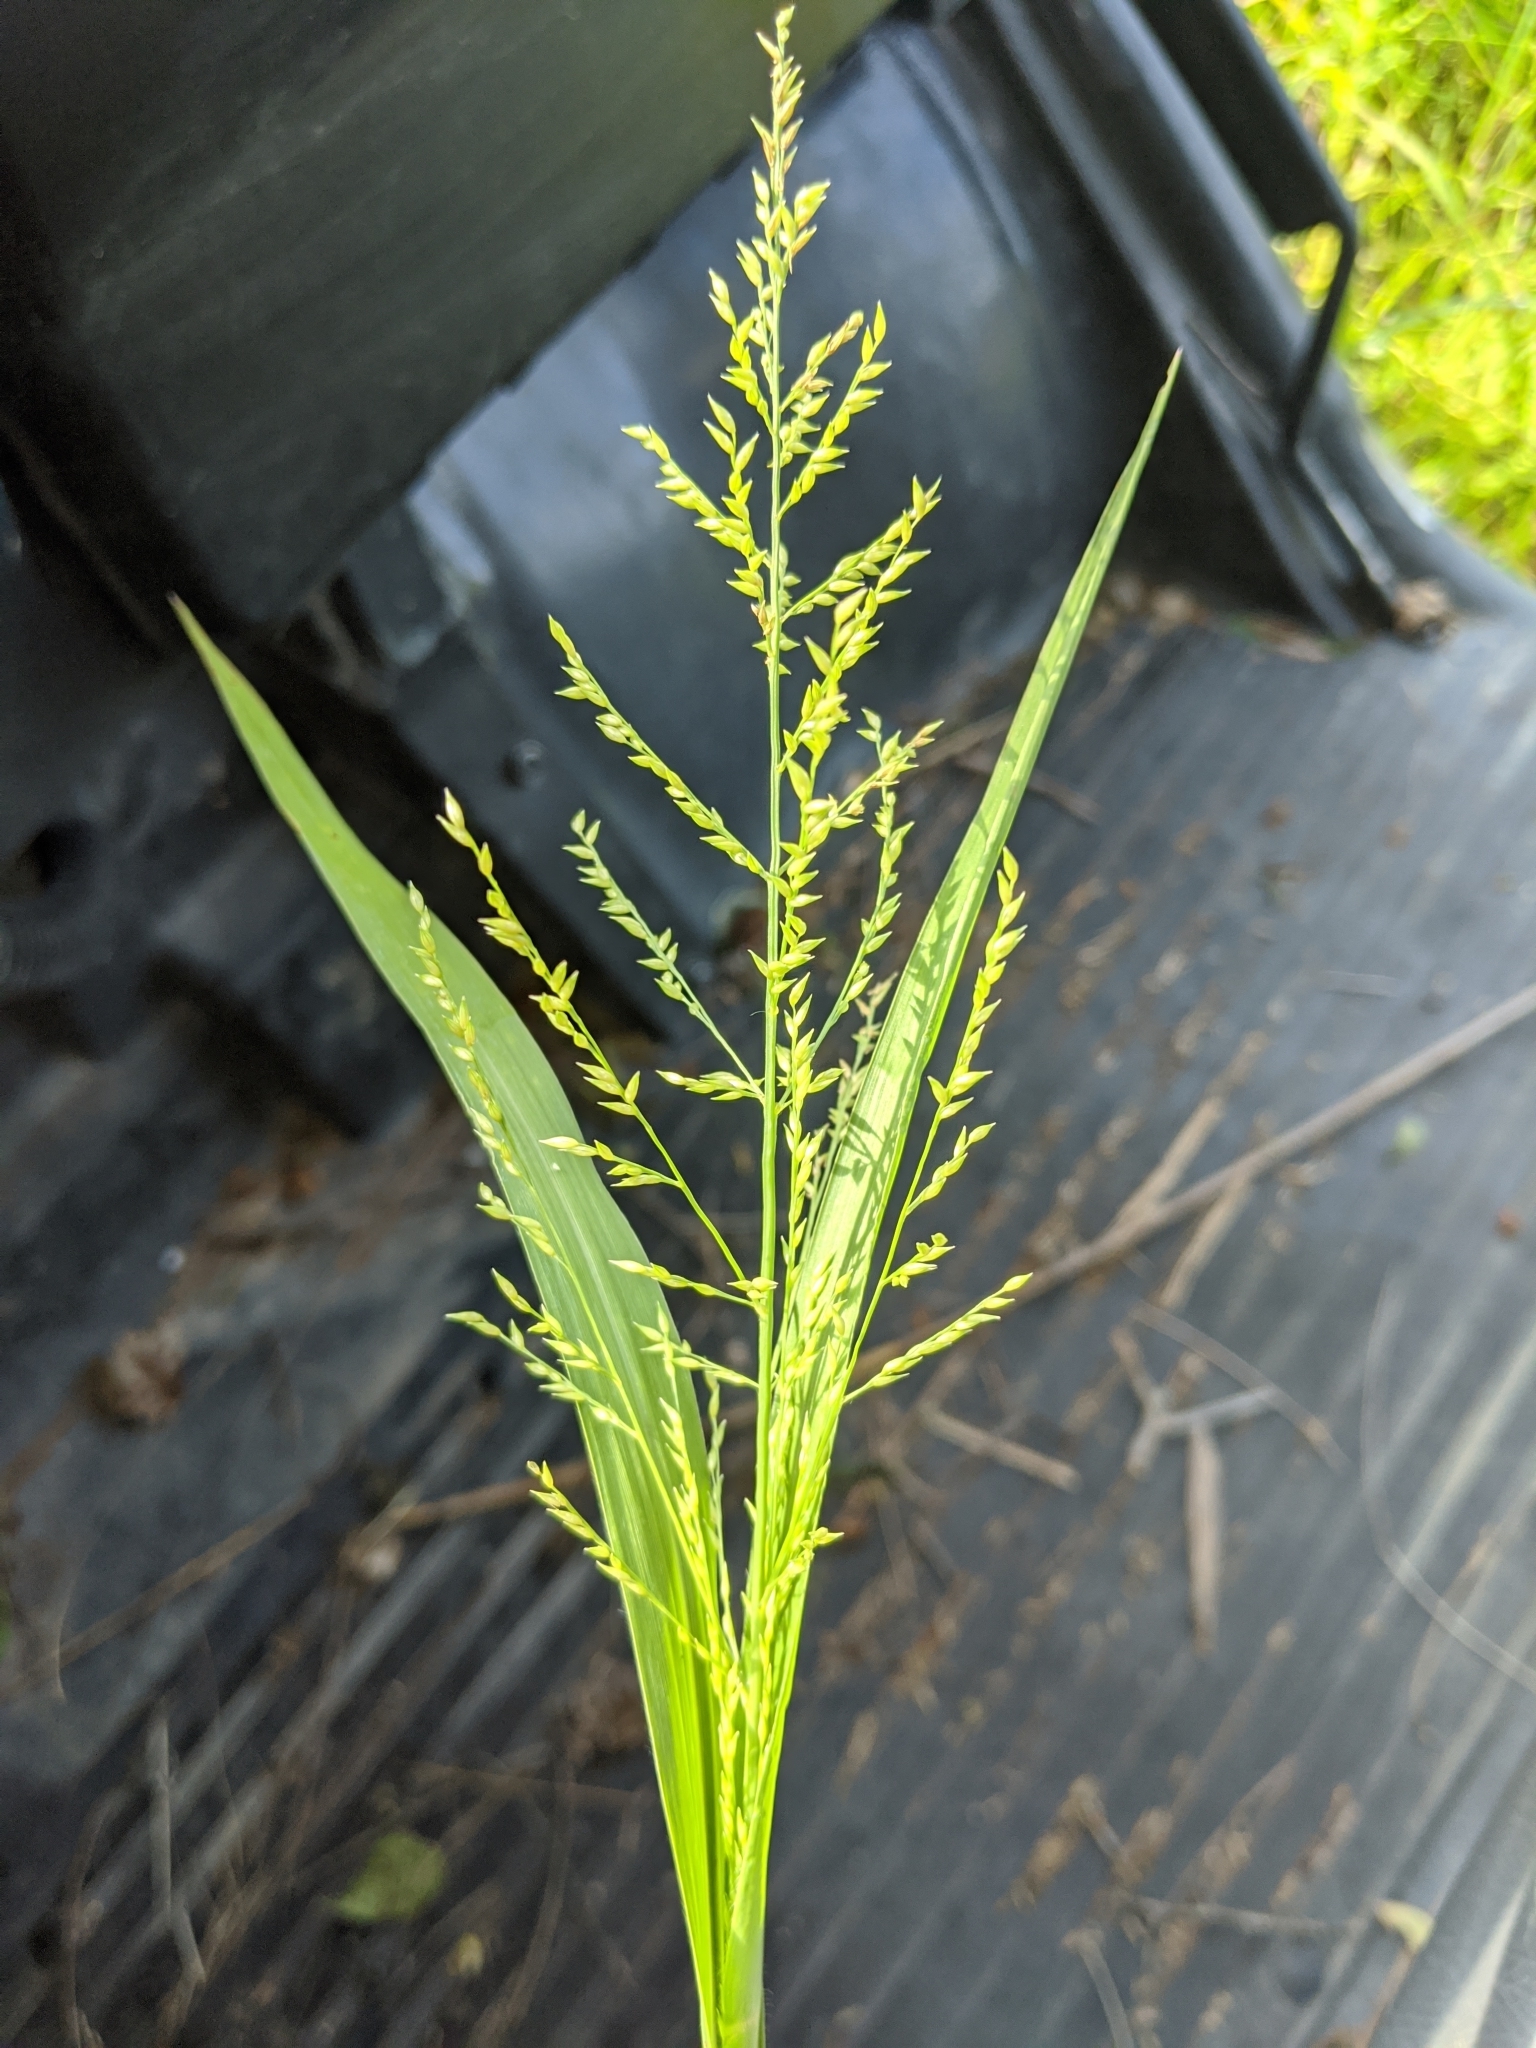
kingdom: Plantae
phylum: Tracheophyta
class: Liliopsida
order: Poales
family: Poaceae
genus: Coleataenia
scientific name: Coleataenia anceps
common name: Beaked panic grass
